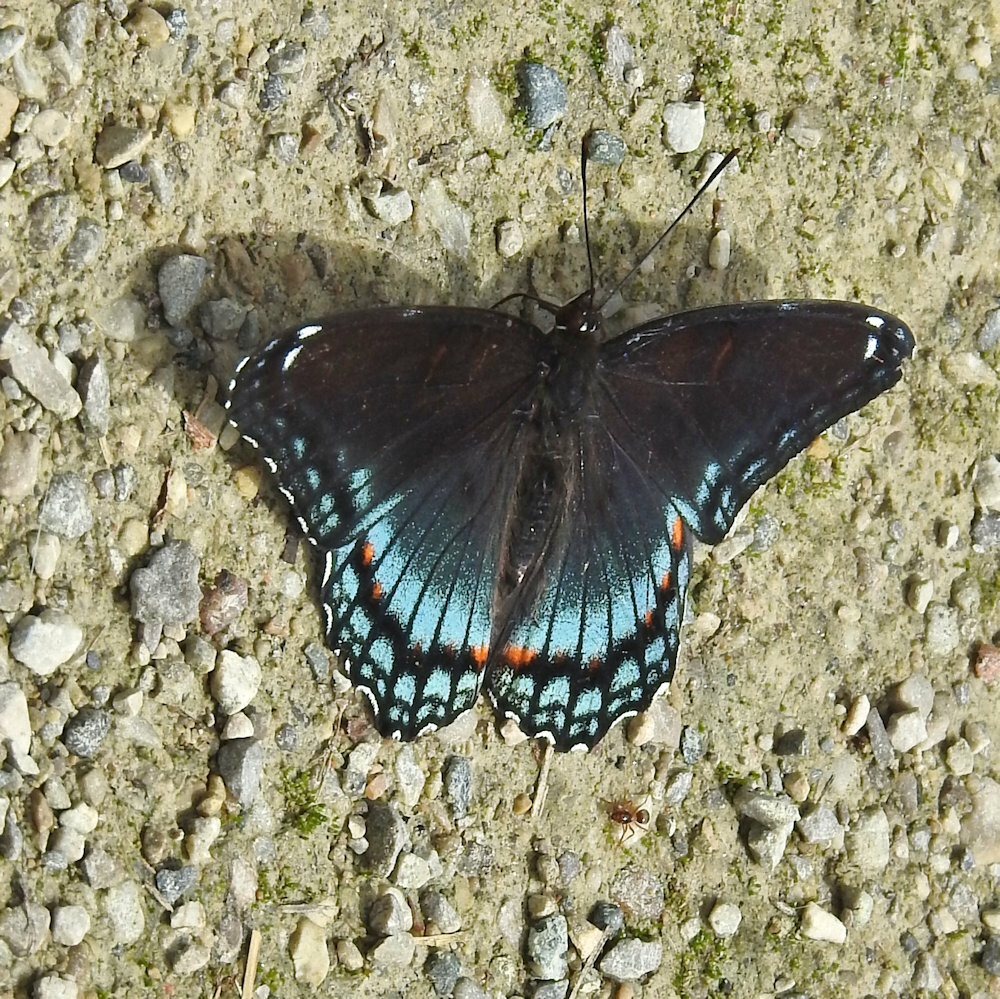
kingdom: Animalia
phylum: Arthropoda
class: Insecta
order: Lepidoptera
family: Nymphalidae
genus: Limenitis
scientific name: Limenitis astyanax
